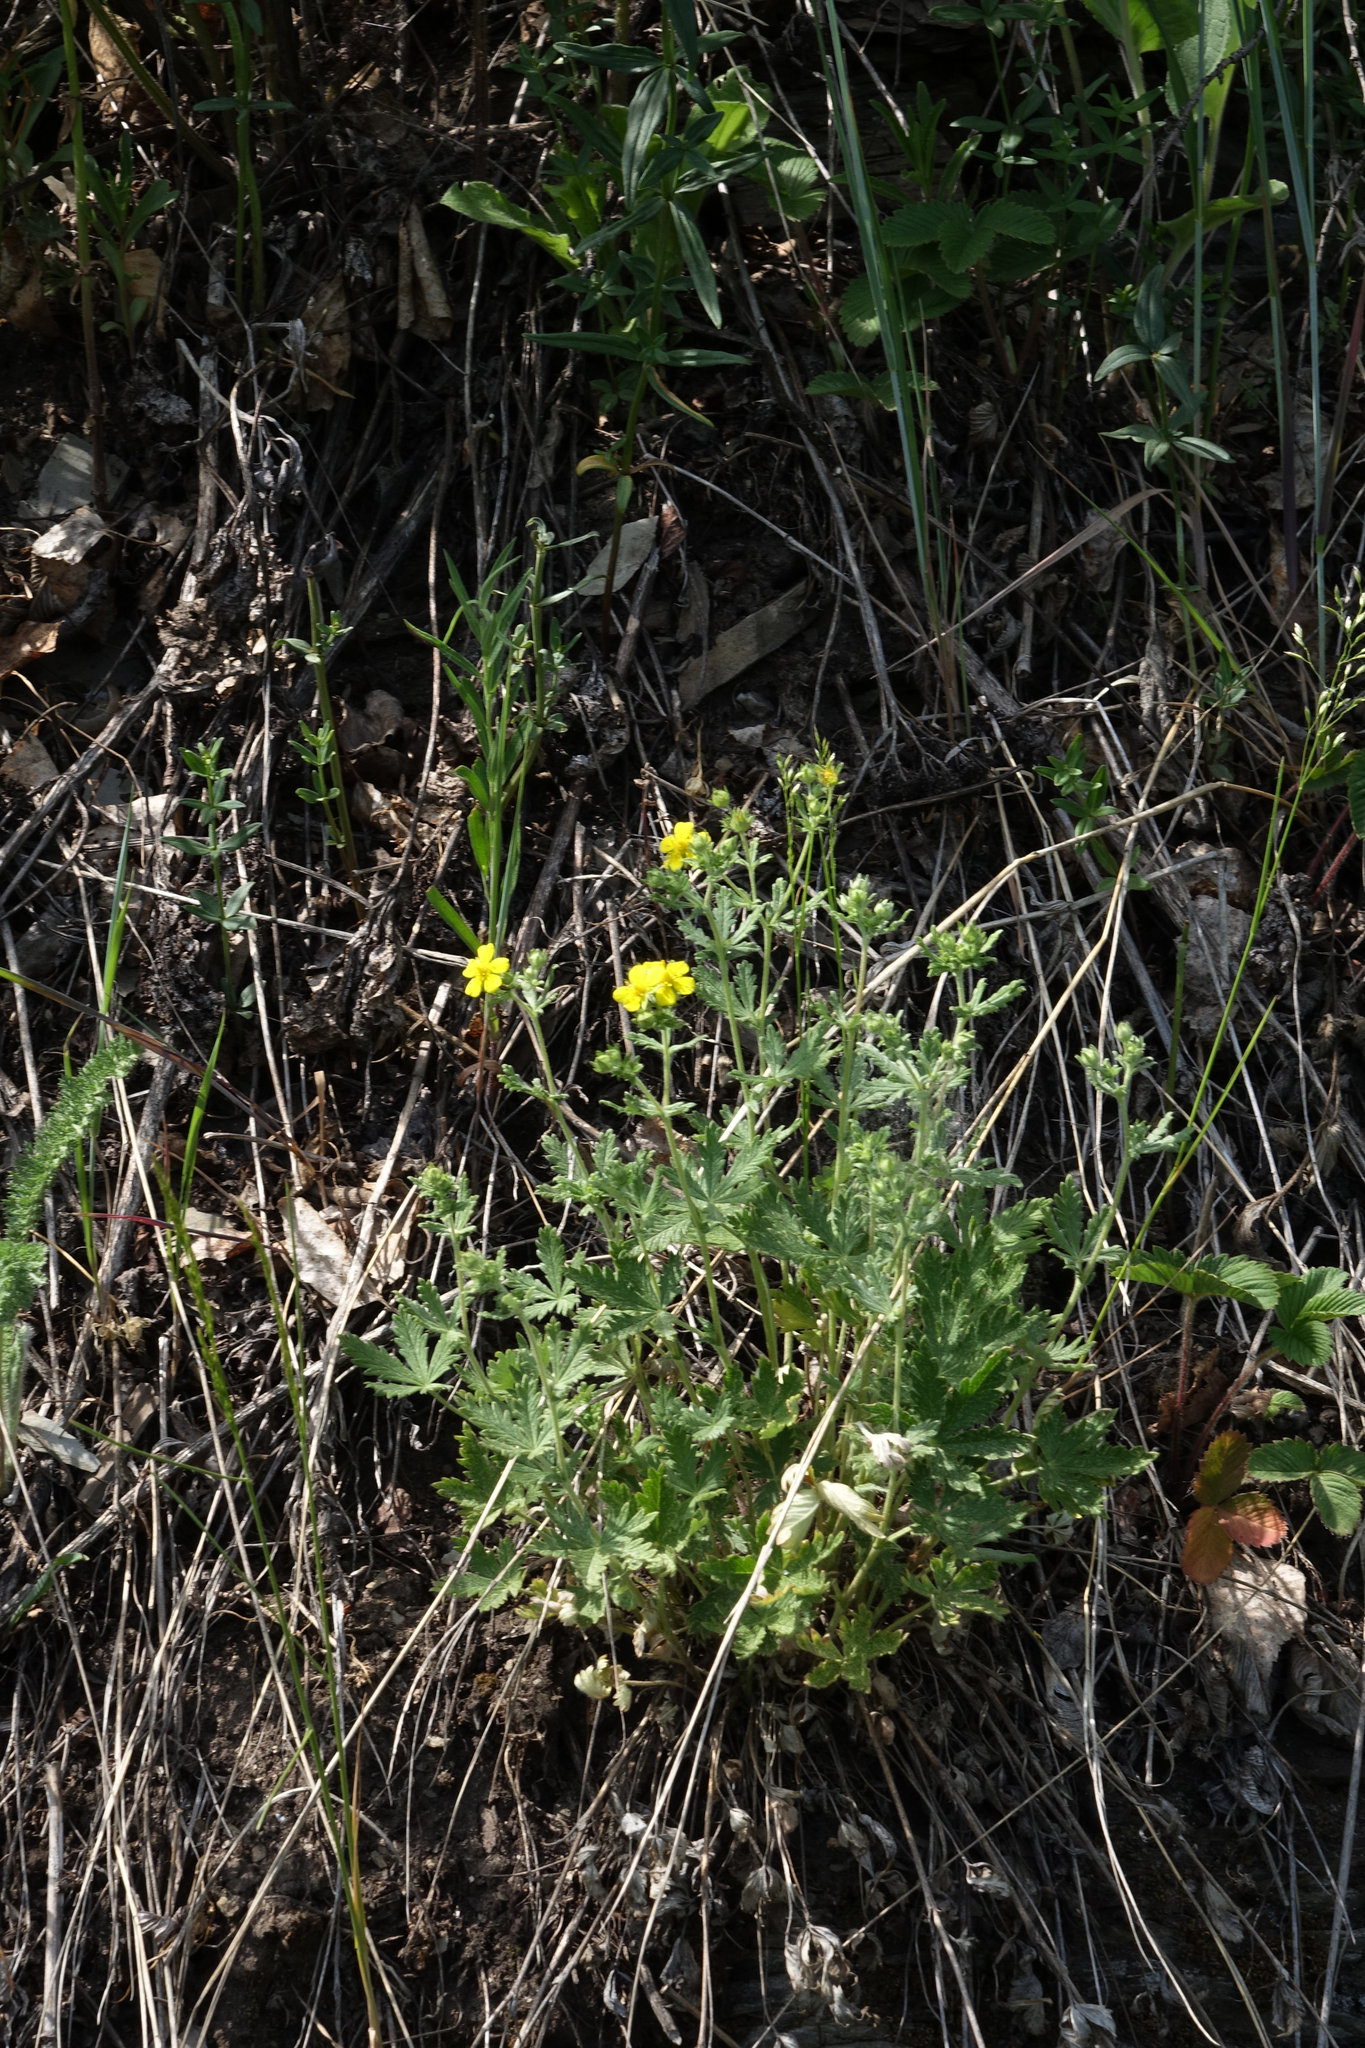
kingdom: Plantae
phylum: Tracheophyta
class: Magnoliopsida
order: Rosales
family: Rosaceae
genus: Potentilla
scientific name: Potentilla argentea
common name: Hoary cinquefoil
